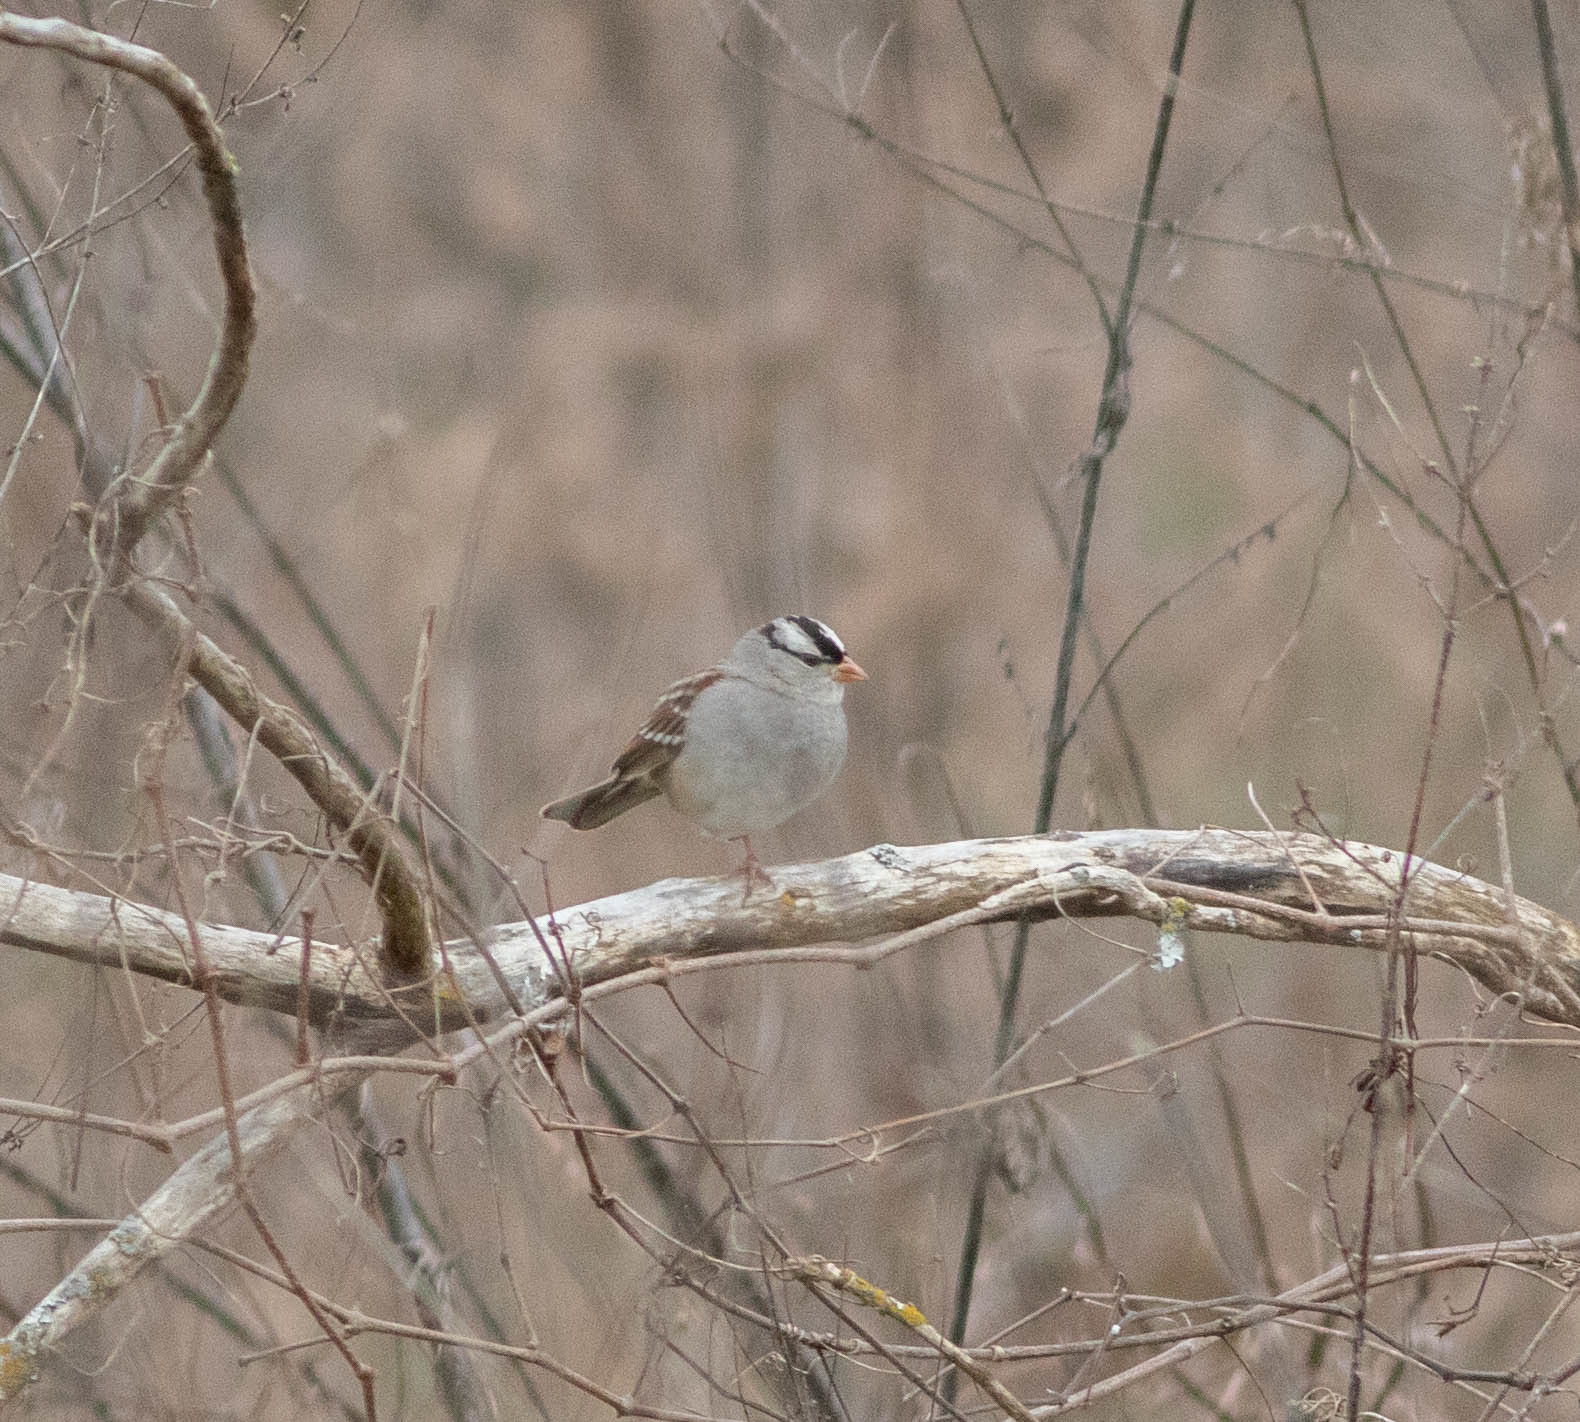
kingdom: Animalia
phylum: Chordata
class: Aves
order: Passeriformes
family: Passerellidae
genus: Zonotrichia
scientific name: Zonotrichia leucophrys
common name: White-crowned sparrow
